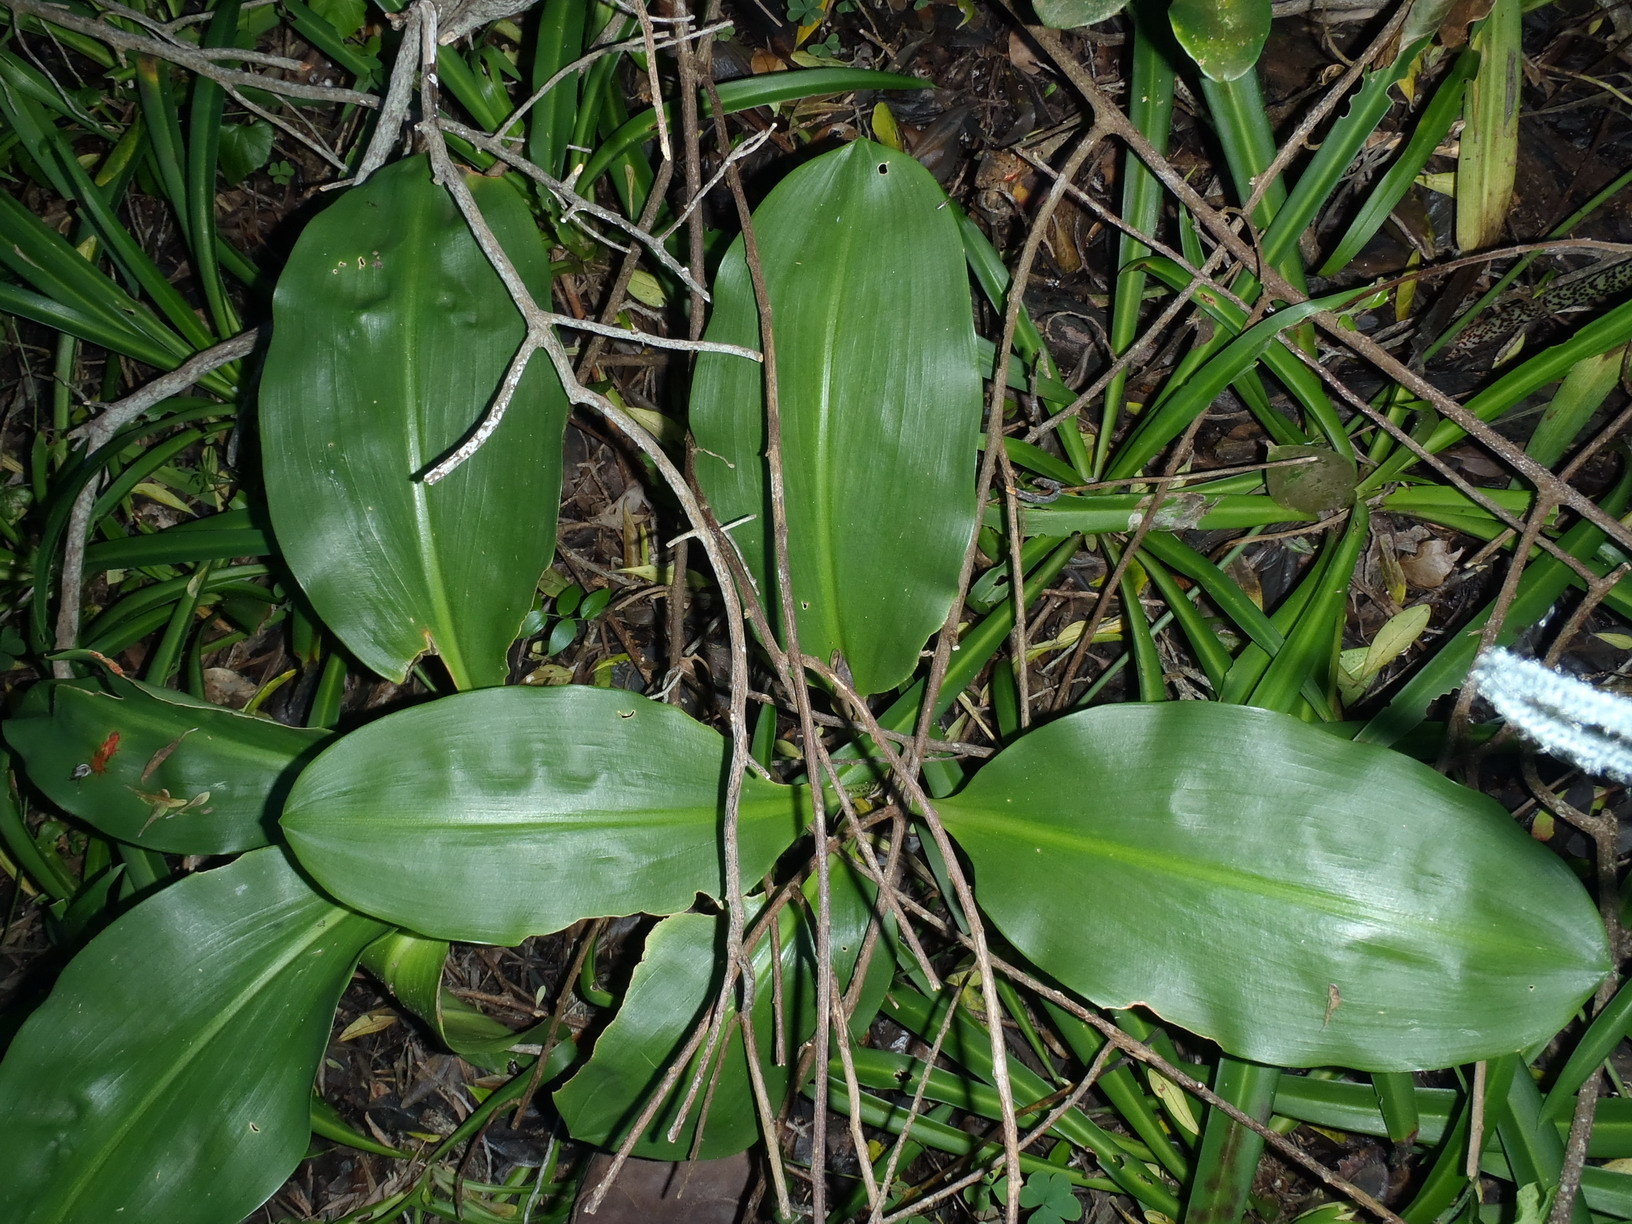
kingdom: Plantae
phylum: Tracheophyta
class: Liliopsida
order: Asparagales
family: Amaryllidaceae
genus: Scadoxus
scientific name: Scadoxus puniceus
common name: Royal-paintbrush
